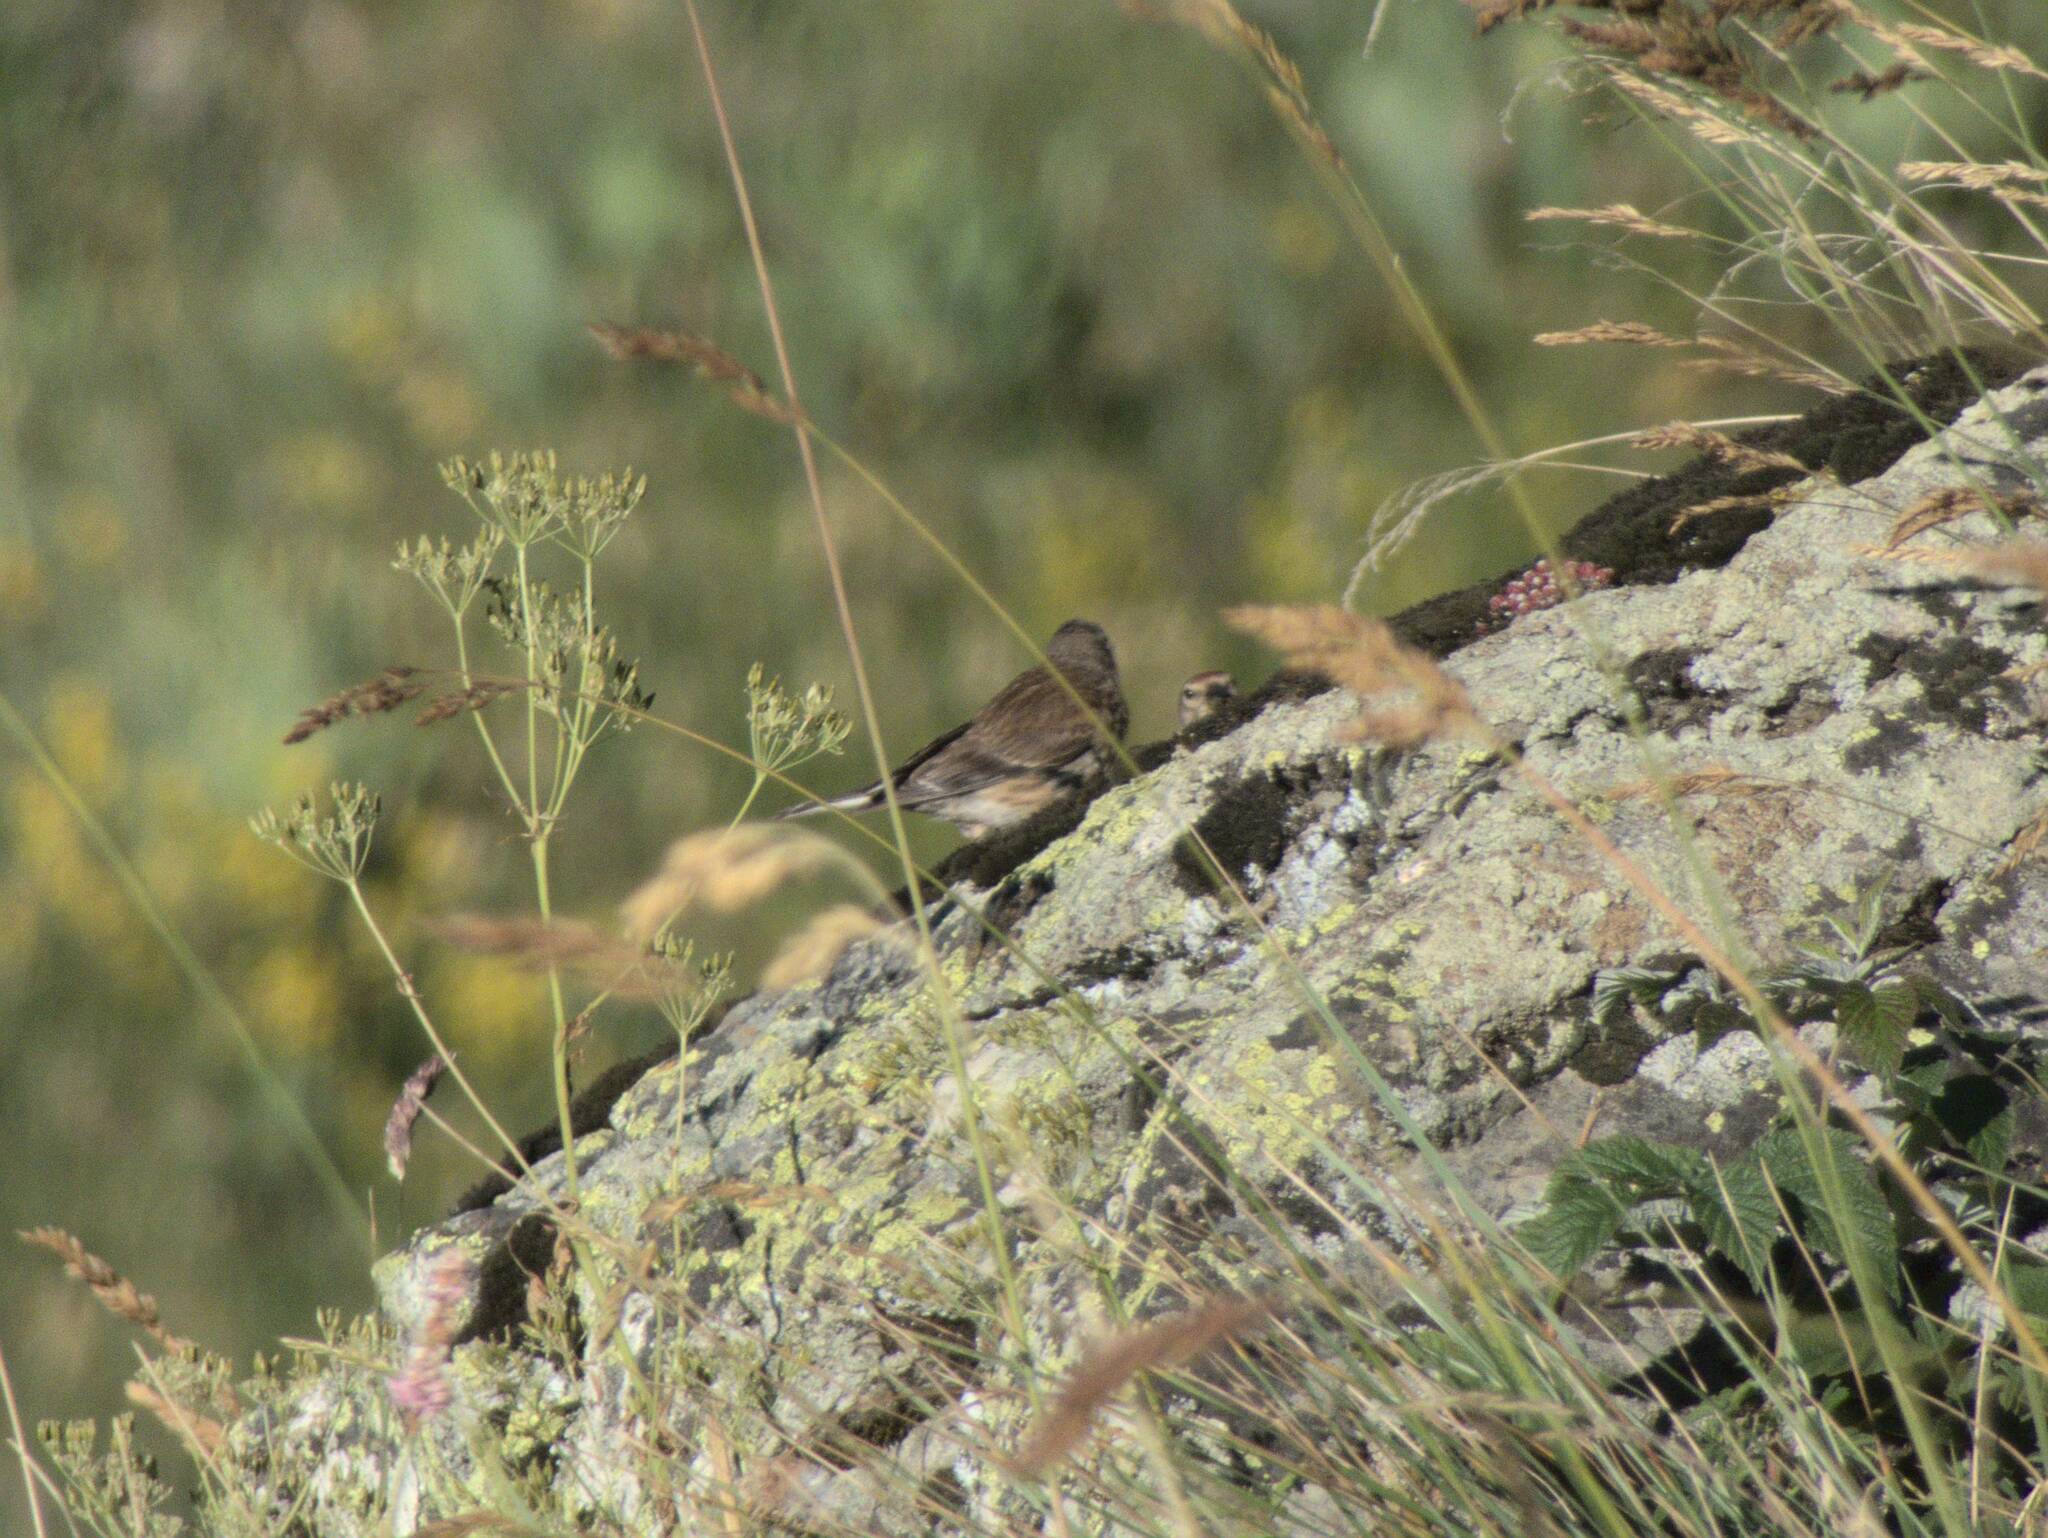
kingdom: Animalia
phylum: Chordata
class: Aves
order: Passeriformes
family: Fringillidae
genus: Linaria
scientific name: Linaria cannabina
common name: Common linnet
